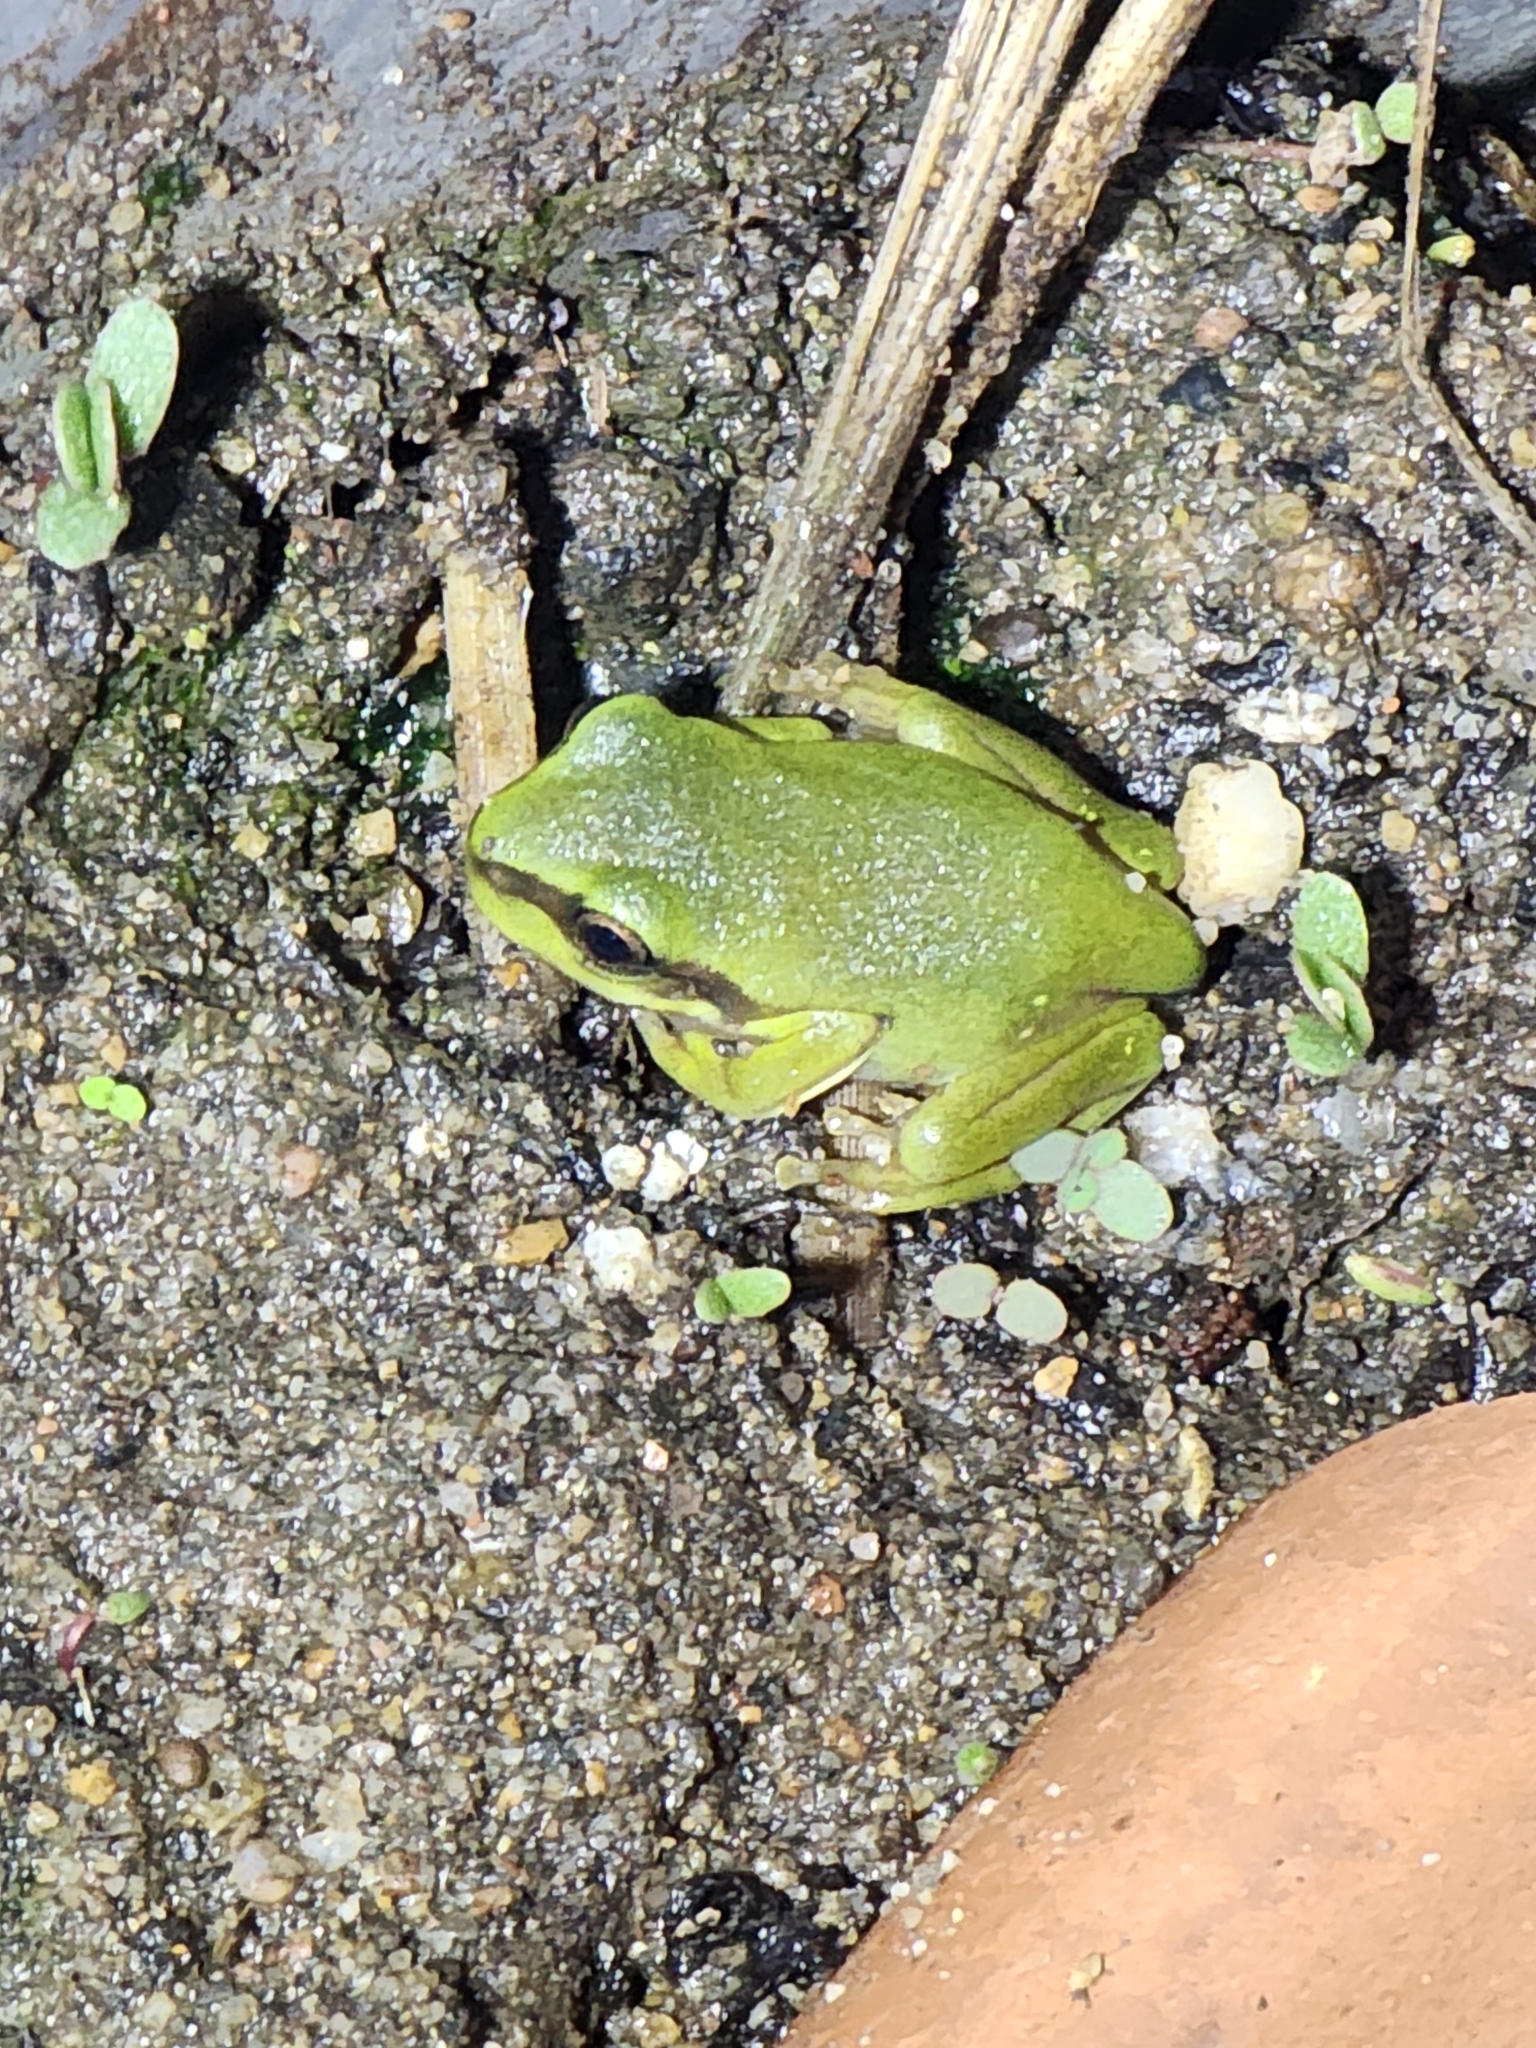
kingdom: Animalia
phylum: Chordata
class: Amphibia
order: Anura
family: Pelodryadidae
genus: Ranoidea
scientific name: Ranoidea caerulea
